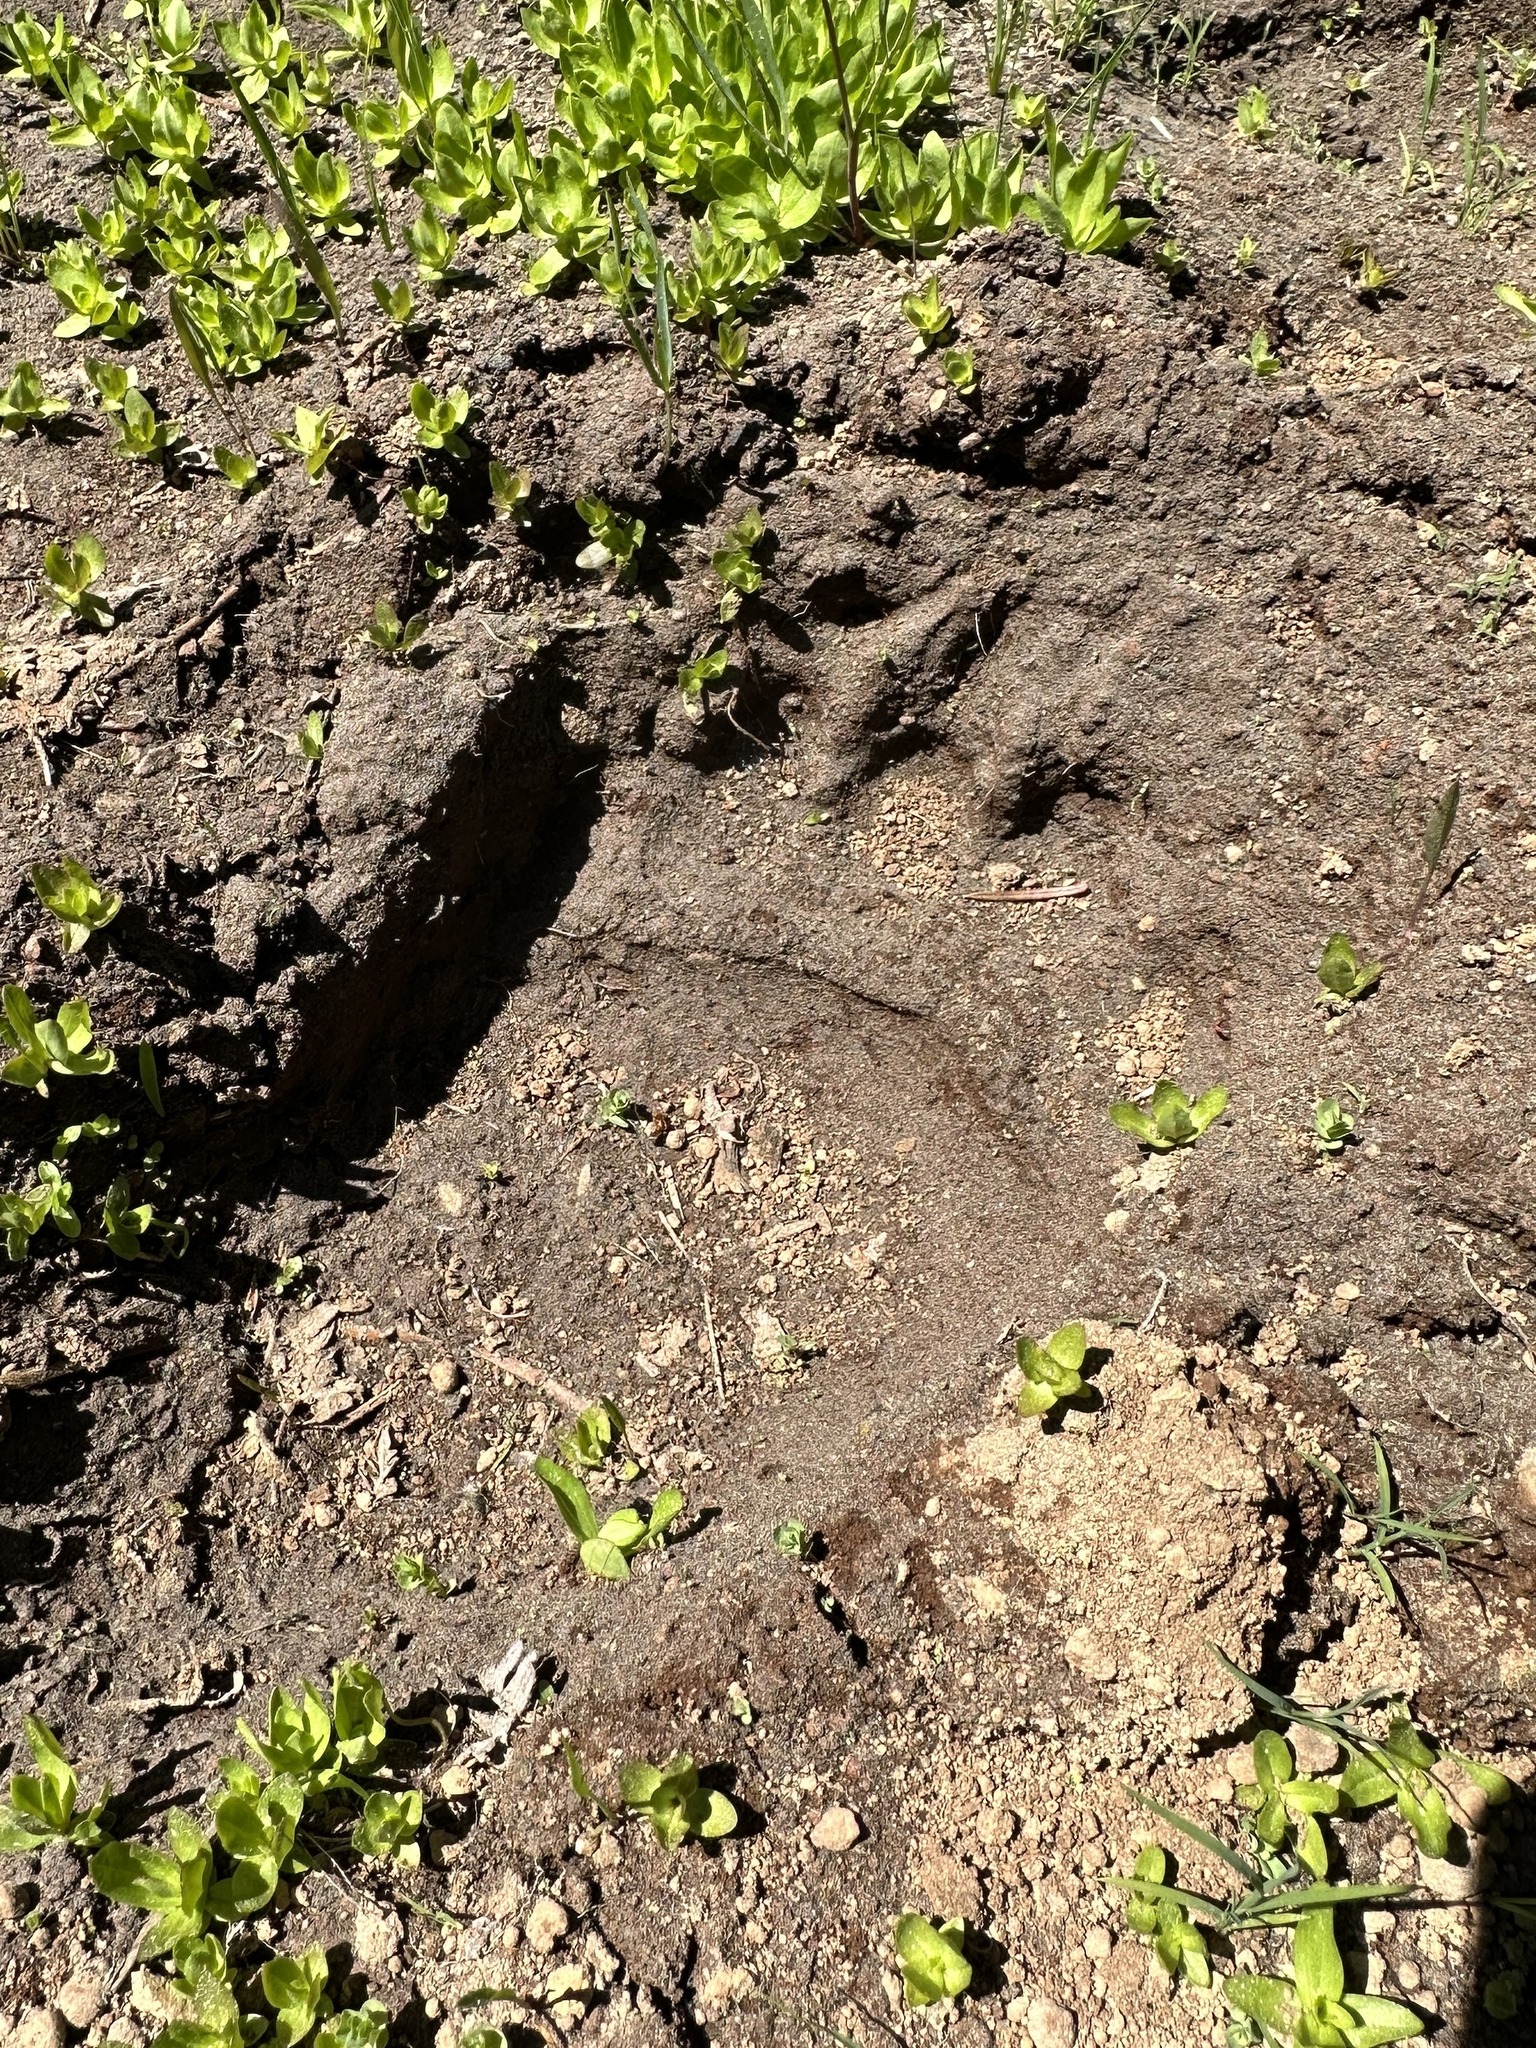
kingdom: Animalia
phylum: Chordata
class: Mammalia
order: Carnivora
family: Ursidae
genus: Ursus
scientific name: Ursus americanus
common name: American black bear
